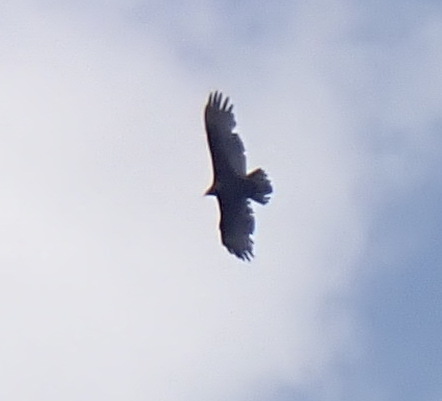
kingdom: Animalia
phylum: Chordata
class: Aves
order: Accipitriformes
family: Cathartidae
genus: Cathartes
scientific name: Cathartes aura
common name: Turkey vulture
